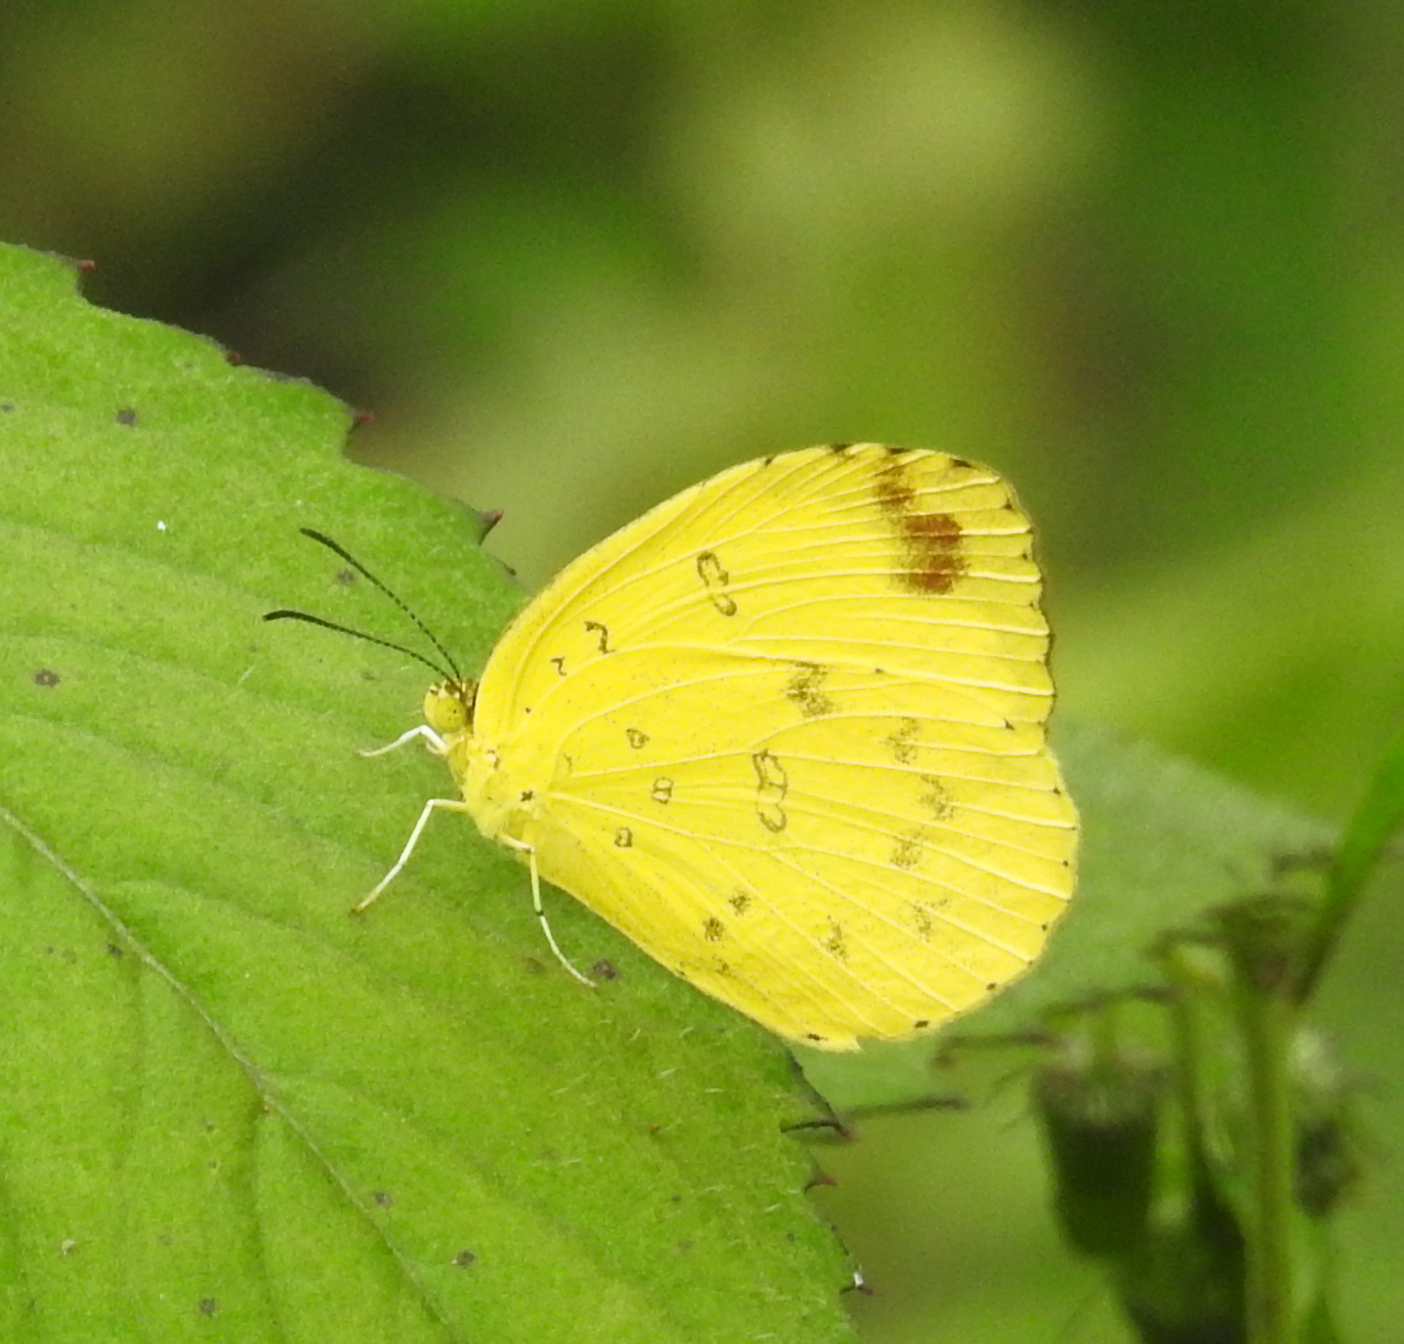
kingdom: Animalia
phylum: Arthropoda
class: Insecta
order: Lepidoptera
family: Pieridae
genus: Eurema
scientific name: Eurema blanda
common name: Three-spot grass yellow
